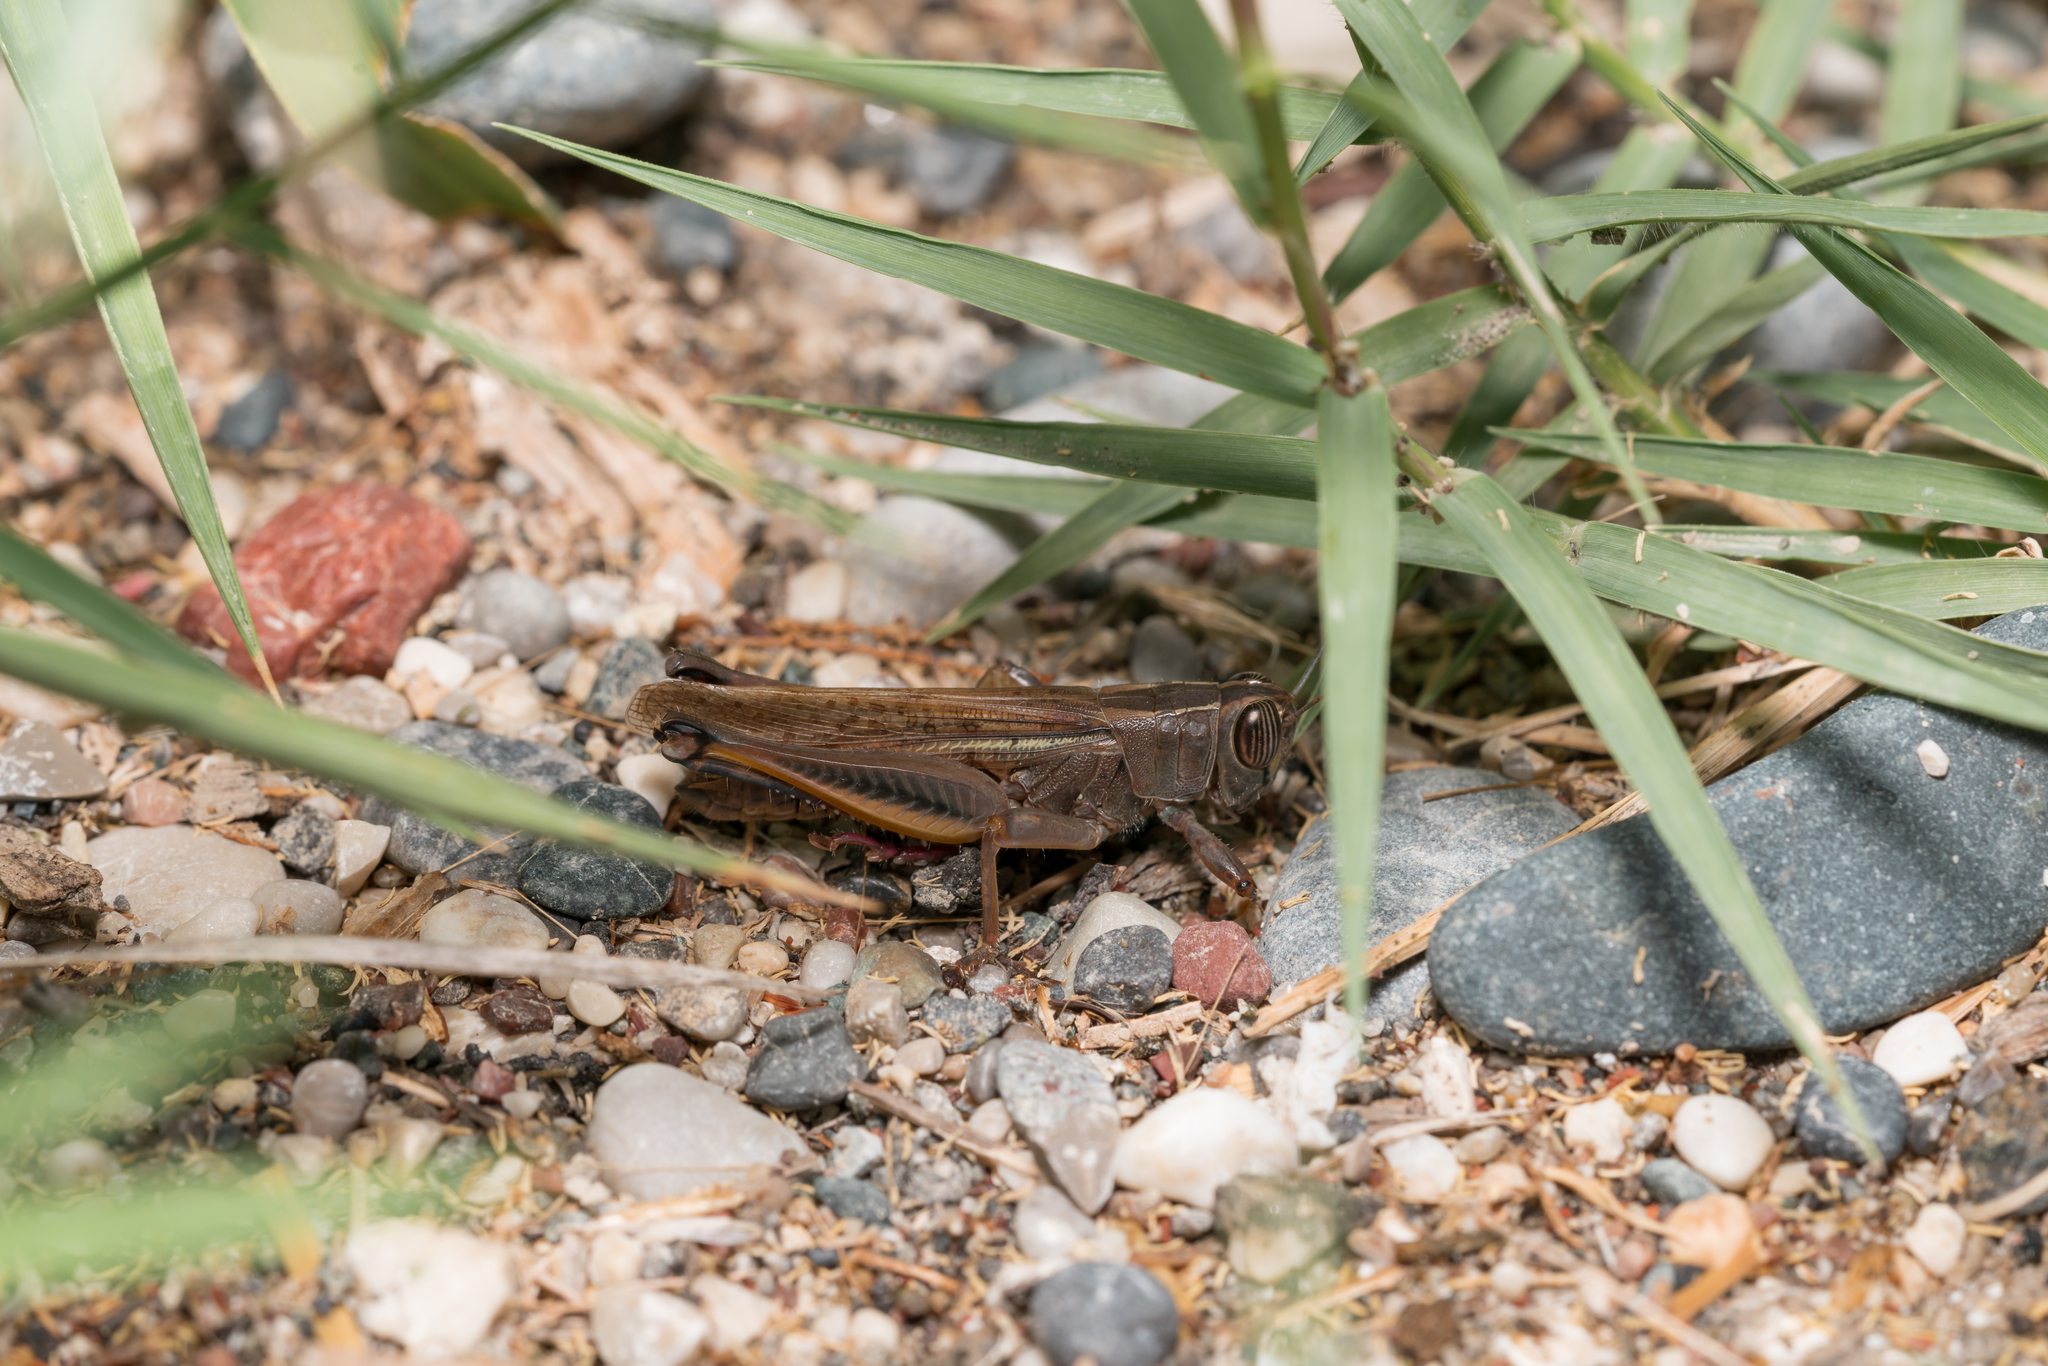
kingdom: Animalia
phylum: Arthropoda
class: Insecta
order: Orthoptera
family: Acrididae
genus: Eyprepocnemis
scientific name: Eyprepocnemis plorans
